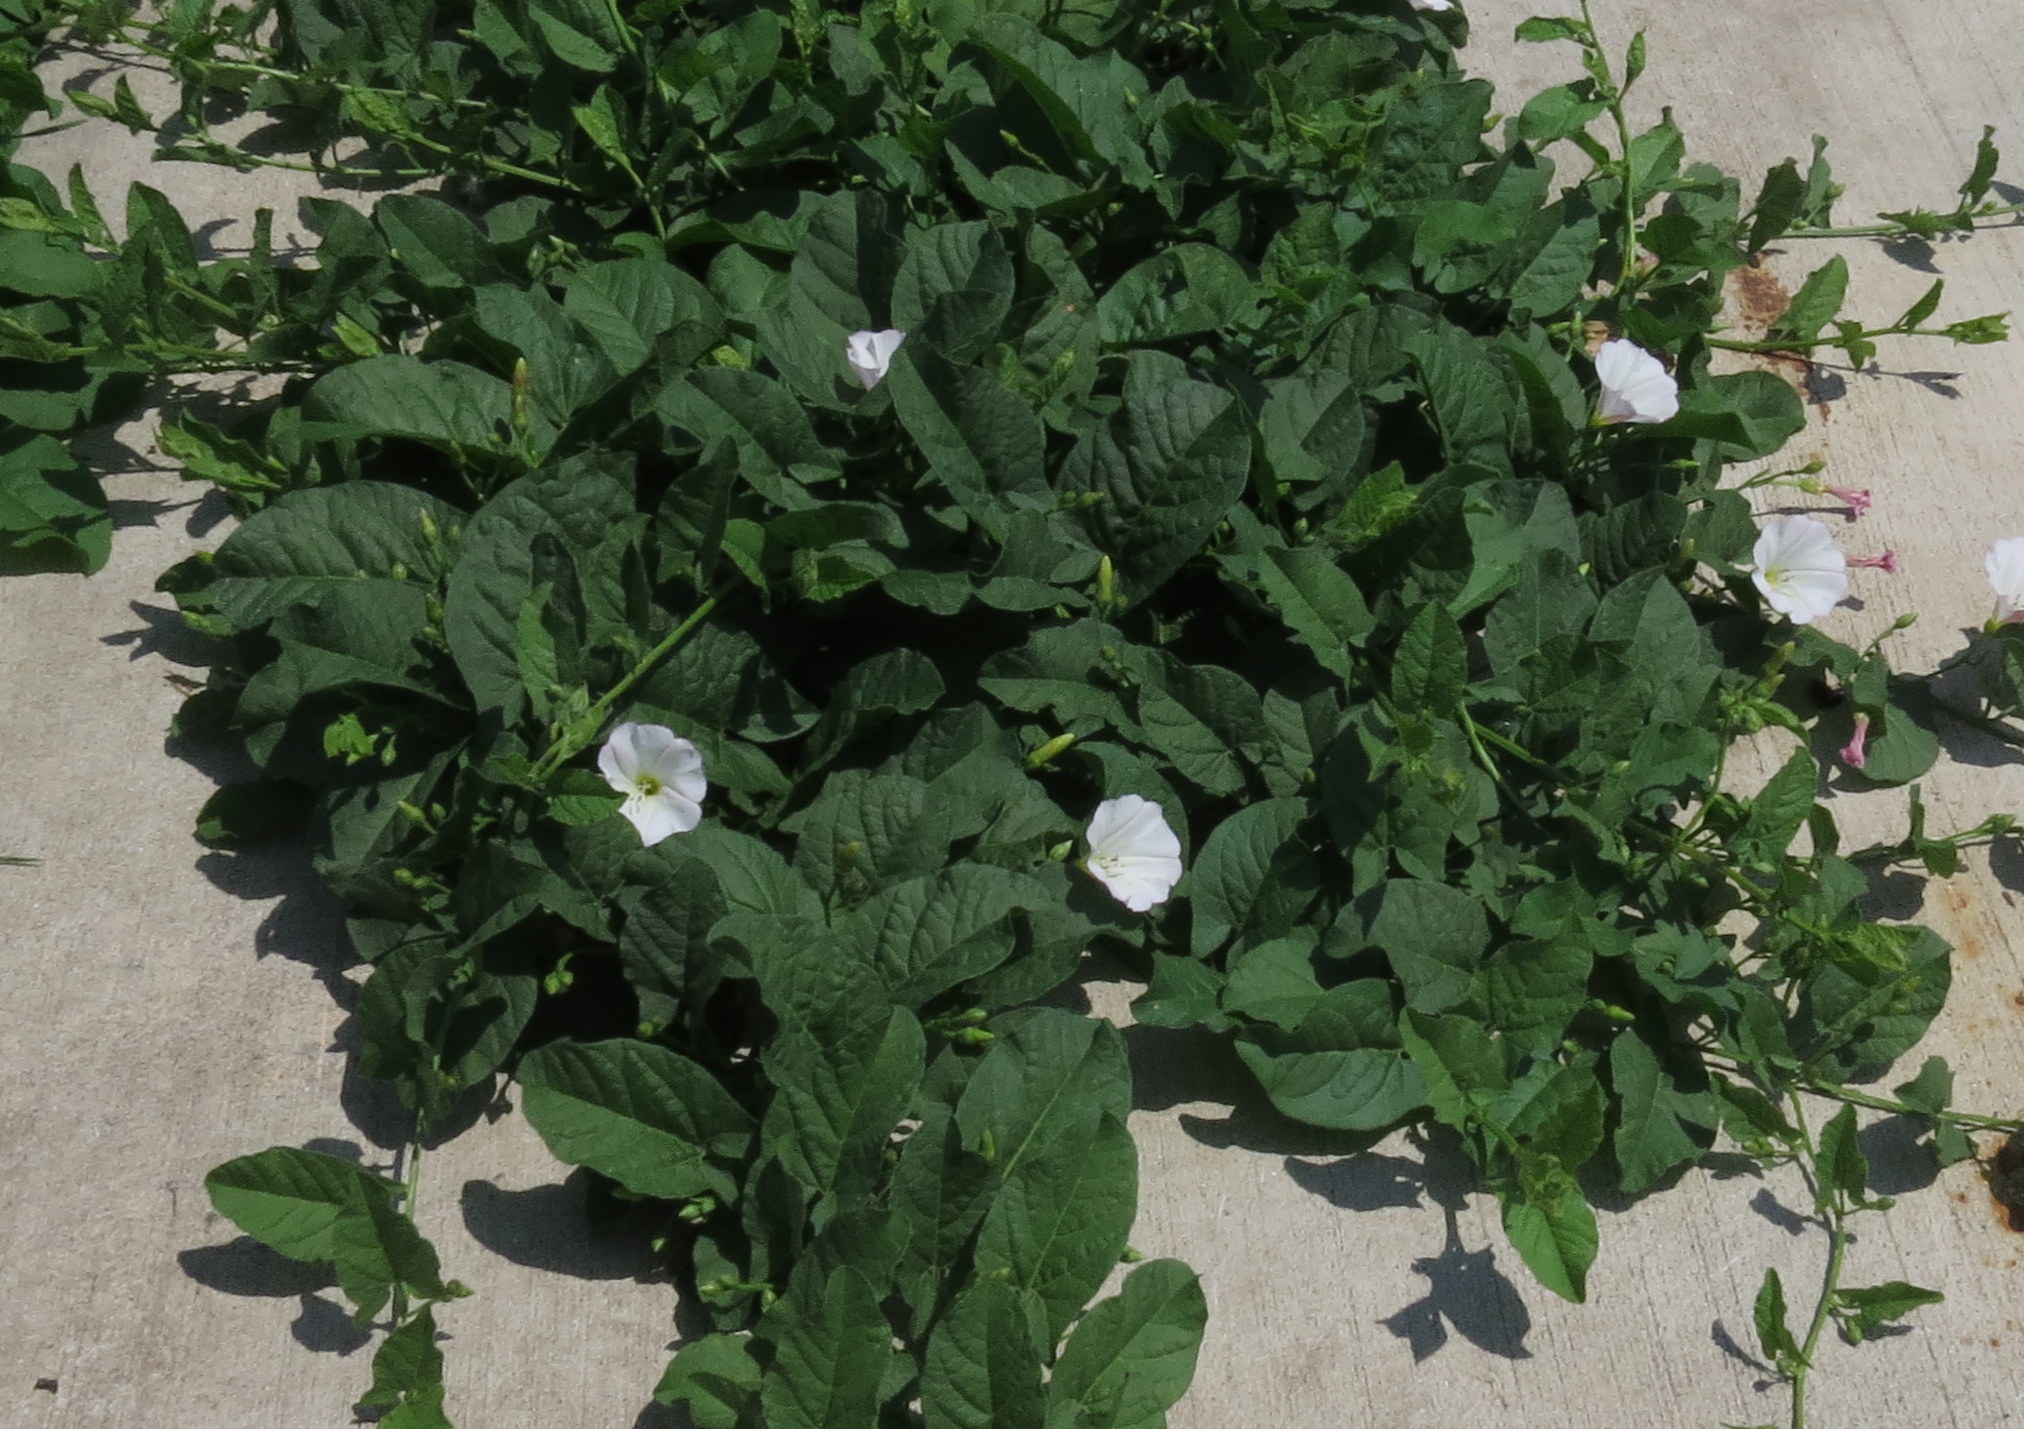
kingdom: Plantae
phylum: Tracheophyta
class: Magnoliopsida
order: Solanales
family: Convolvulaceae
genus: Convolvulus
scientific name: Convolvulus arvensis
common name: Field bindweed
